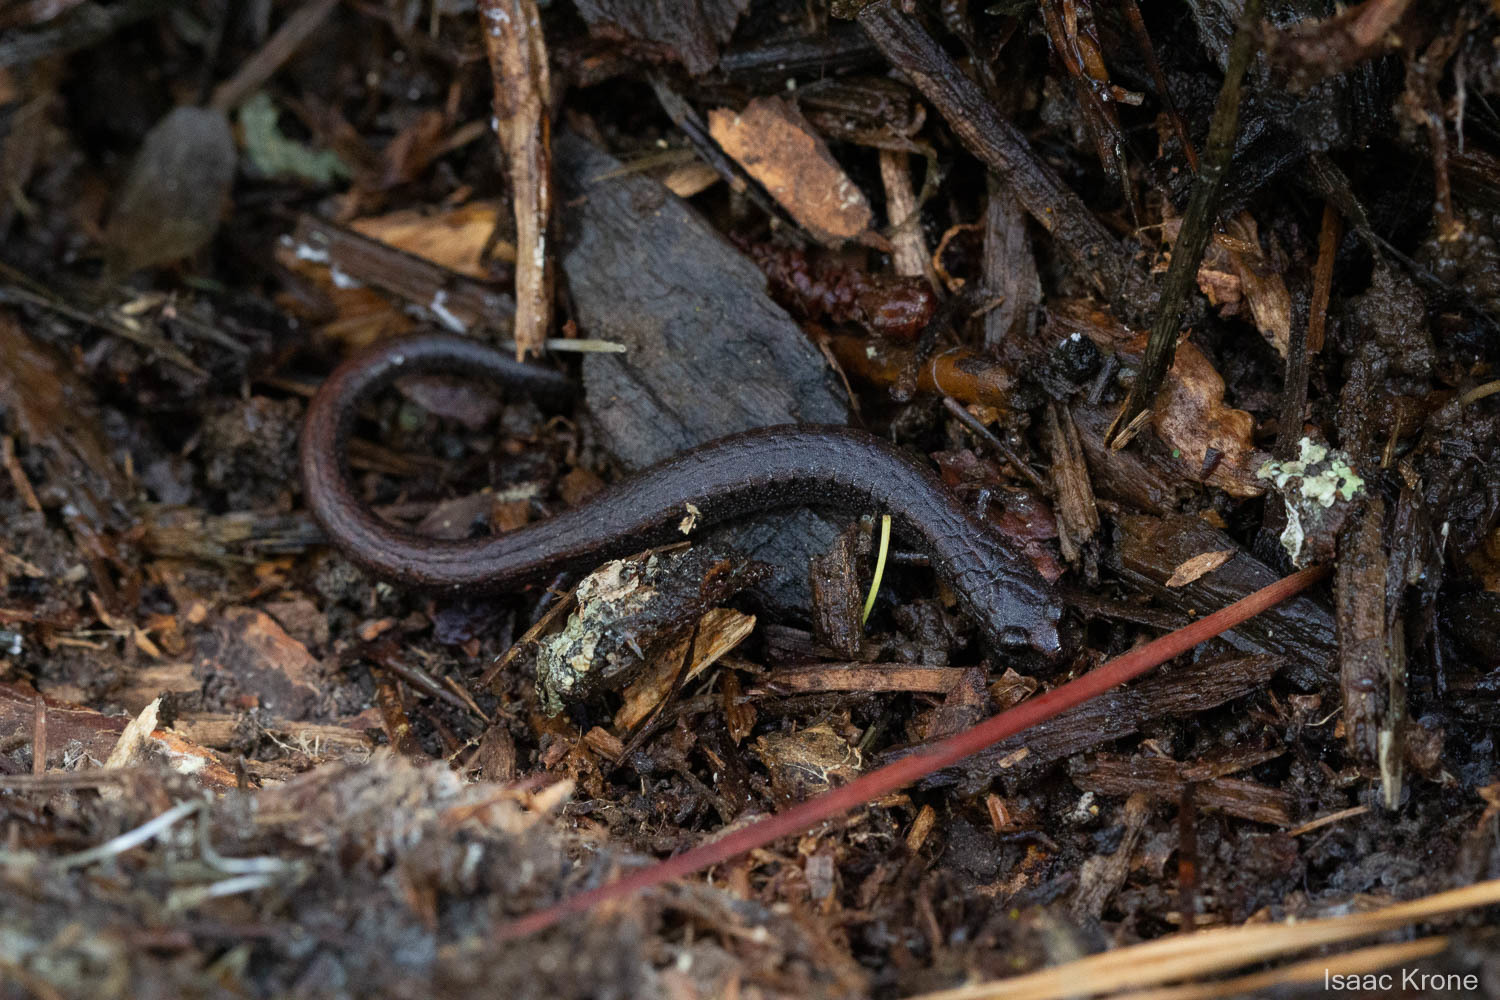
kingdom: Animalia
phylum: Chordata
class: Amphibia
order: Caudata
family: Plethodontidae
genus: Batrachoseps
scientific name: Batrachoseps attenuatus
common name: California slender salamander
